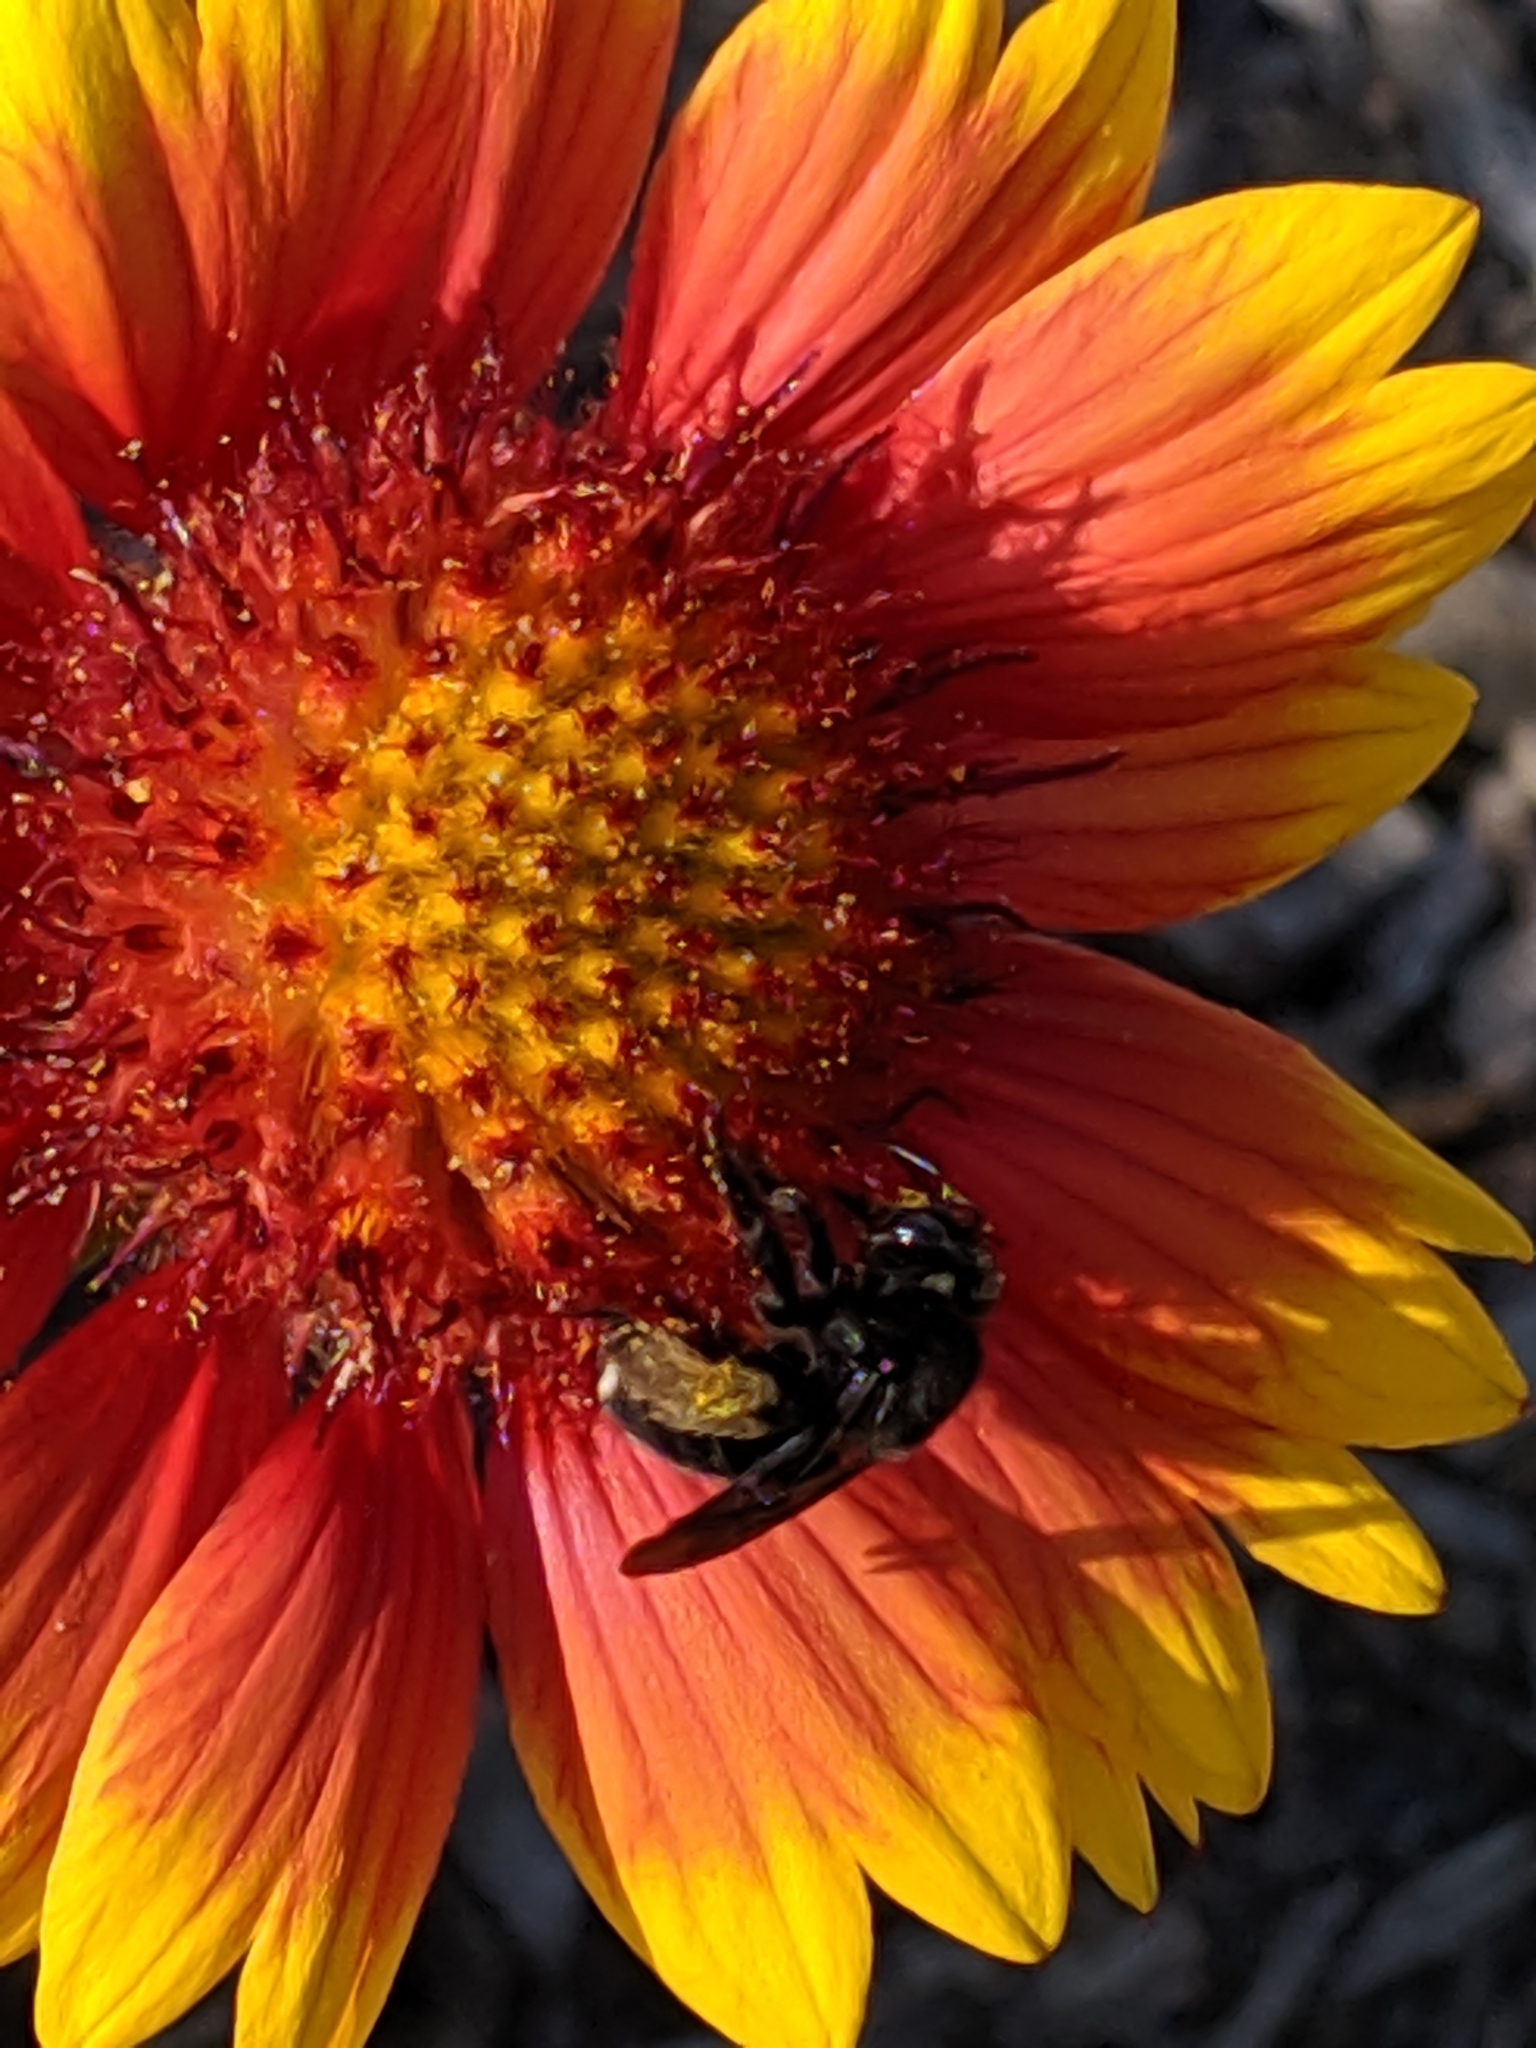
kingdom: Animalia
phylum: Arthropoda
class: Insecta
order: Hymenoptera
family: Apidae
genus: Melissodes
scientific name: Melissodes bimaculatus
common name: Two-spotted long-horned bee
